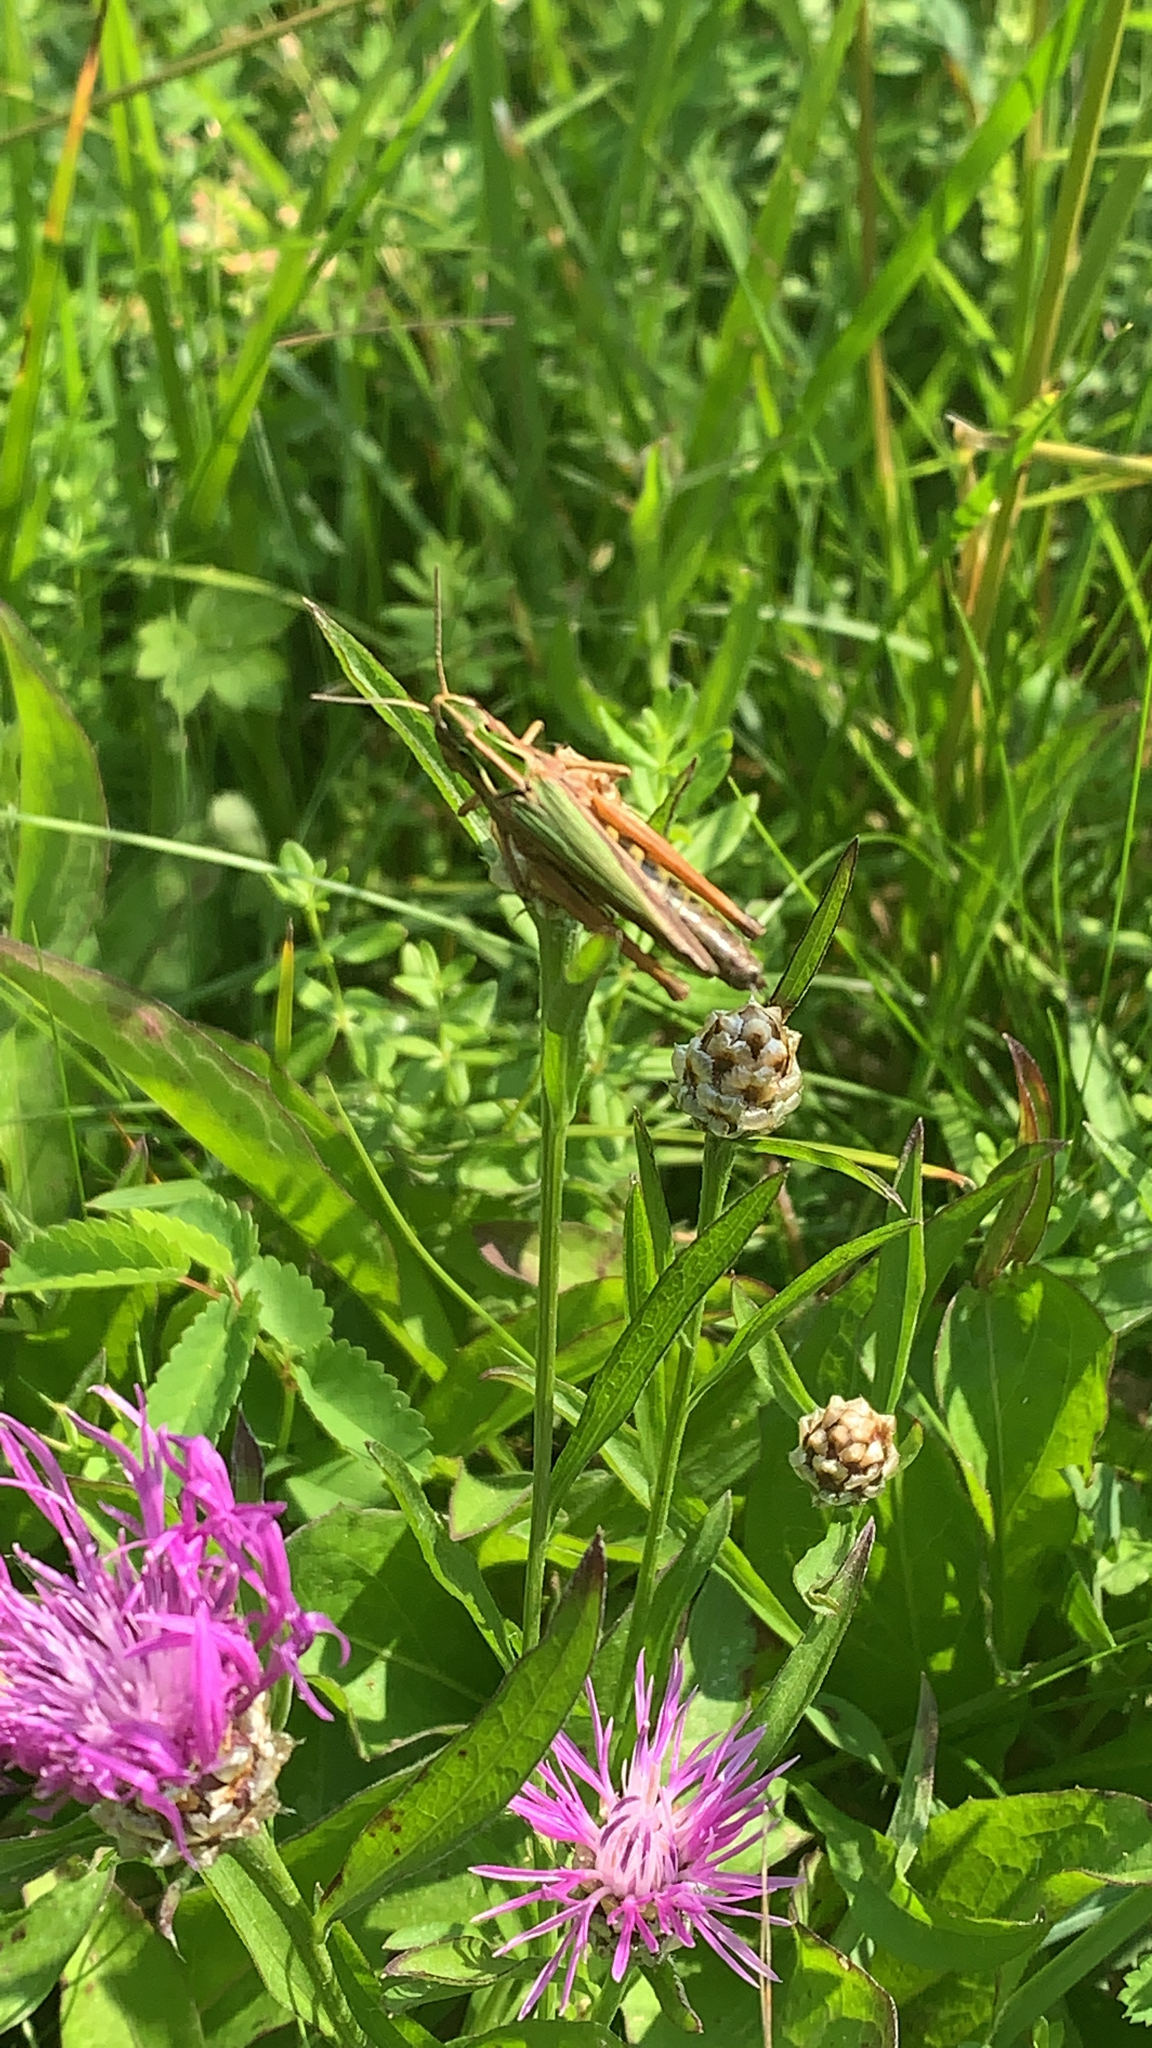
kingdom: Animalia
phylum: Arthropoda
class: Insecta
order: Orthoptera
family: Acrididae
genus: Omocestus
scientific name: Omocestus viridulus
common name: Common green grasshopper
